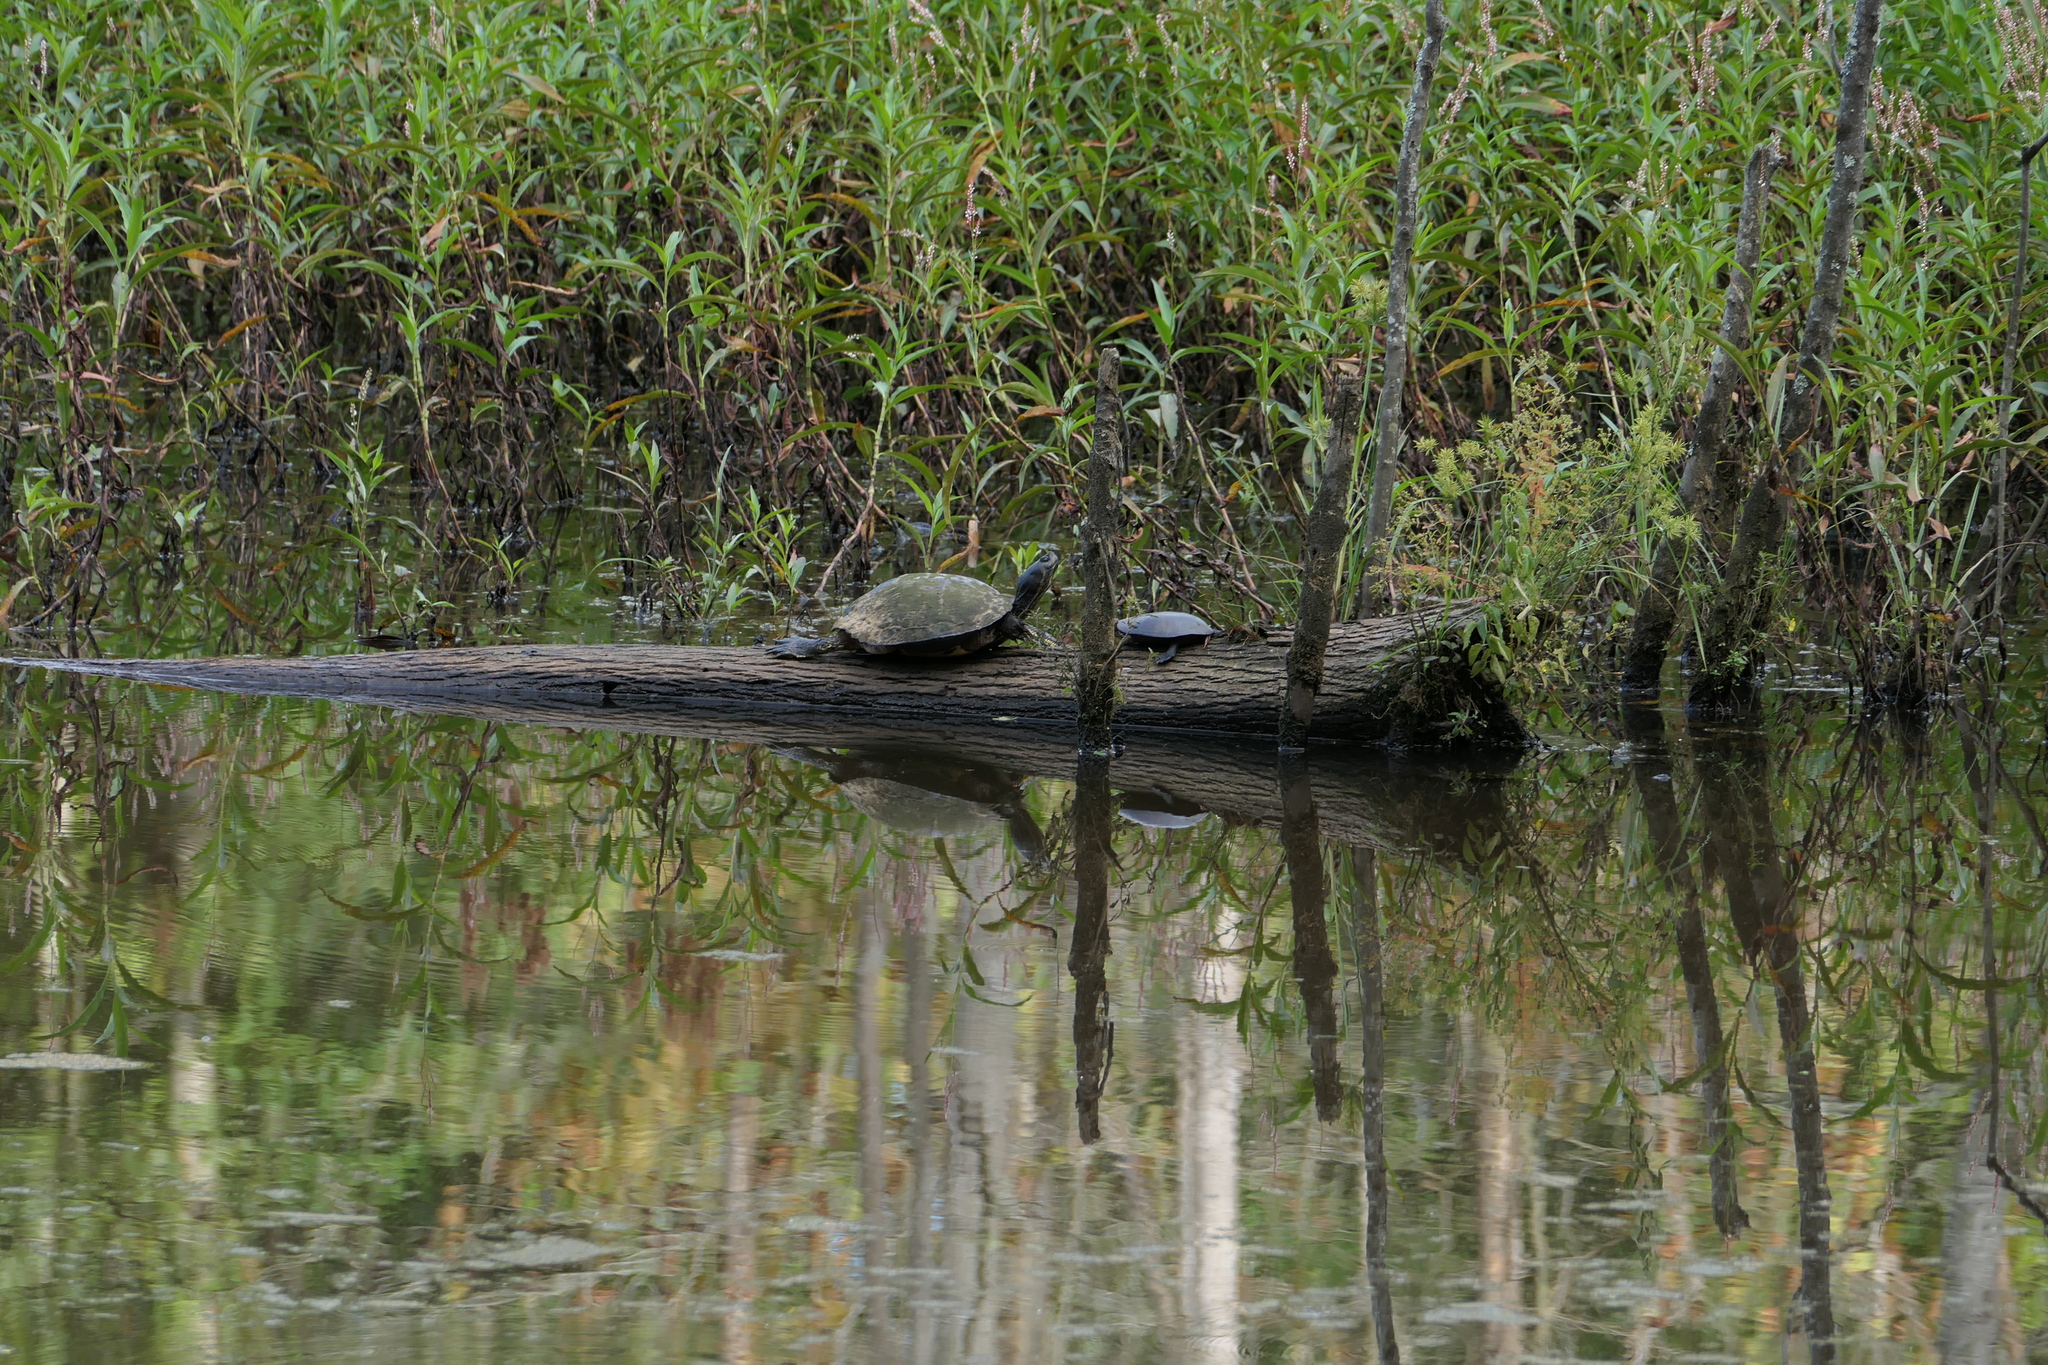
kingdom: Animalia
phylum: Chordata
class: Testudines
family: Emydidae
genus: Trachemys
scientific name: Trachemys scripta
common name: Slider
